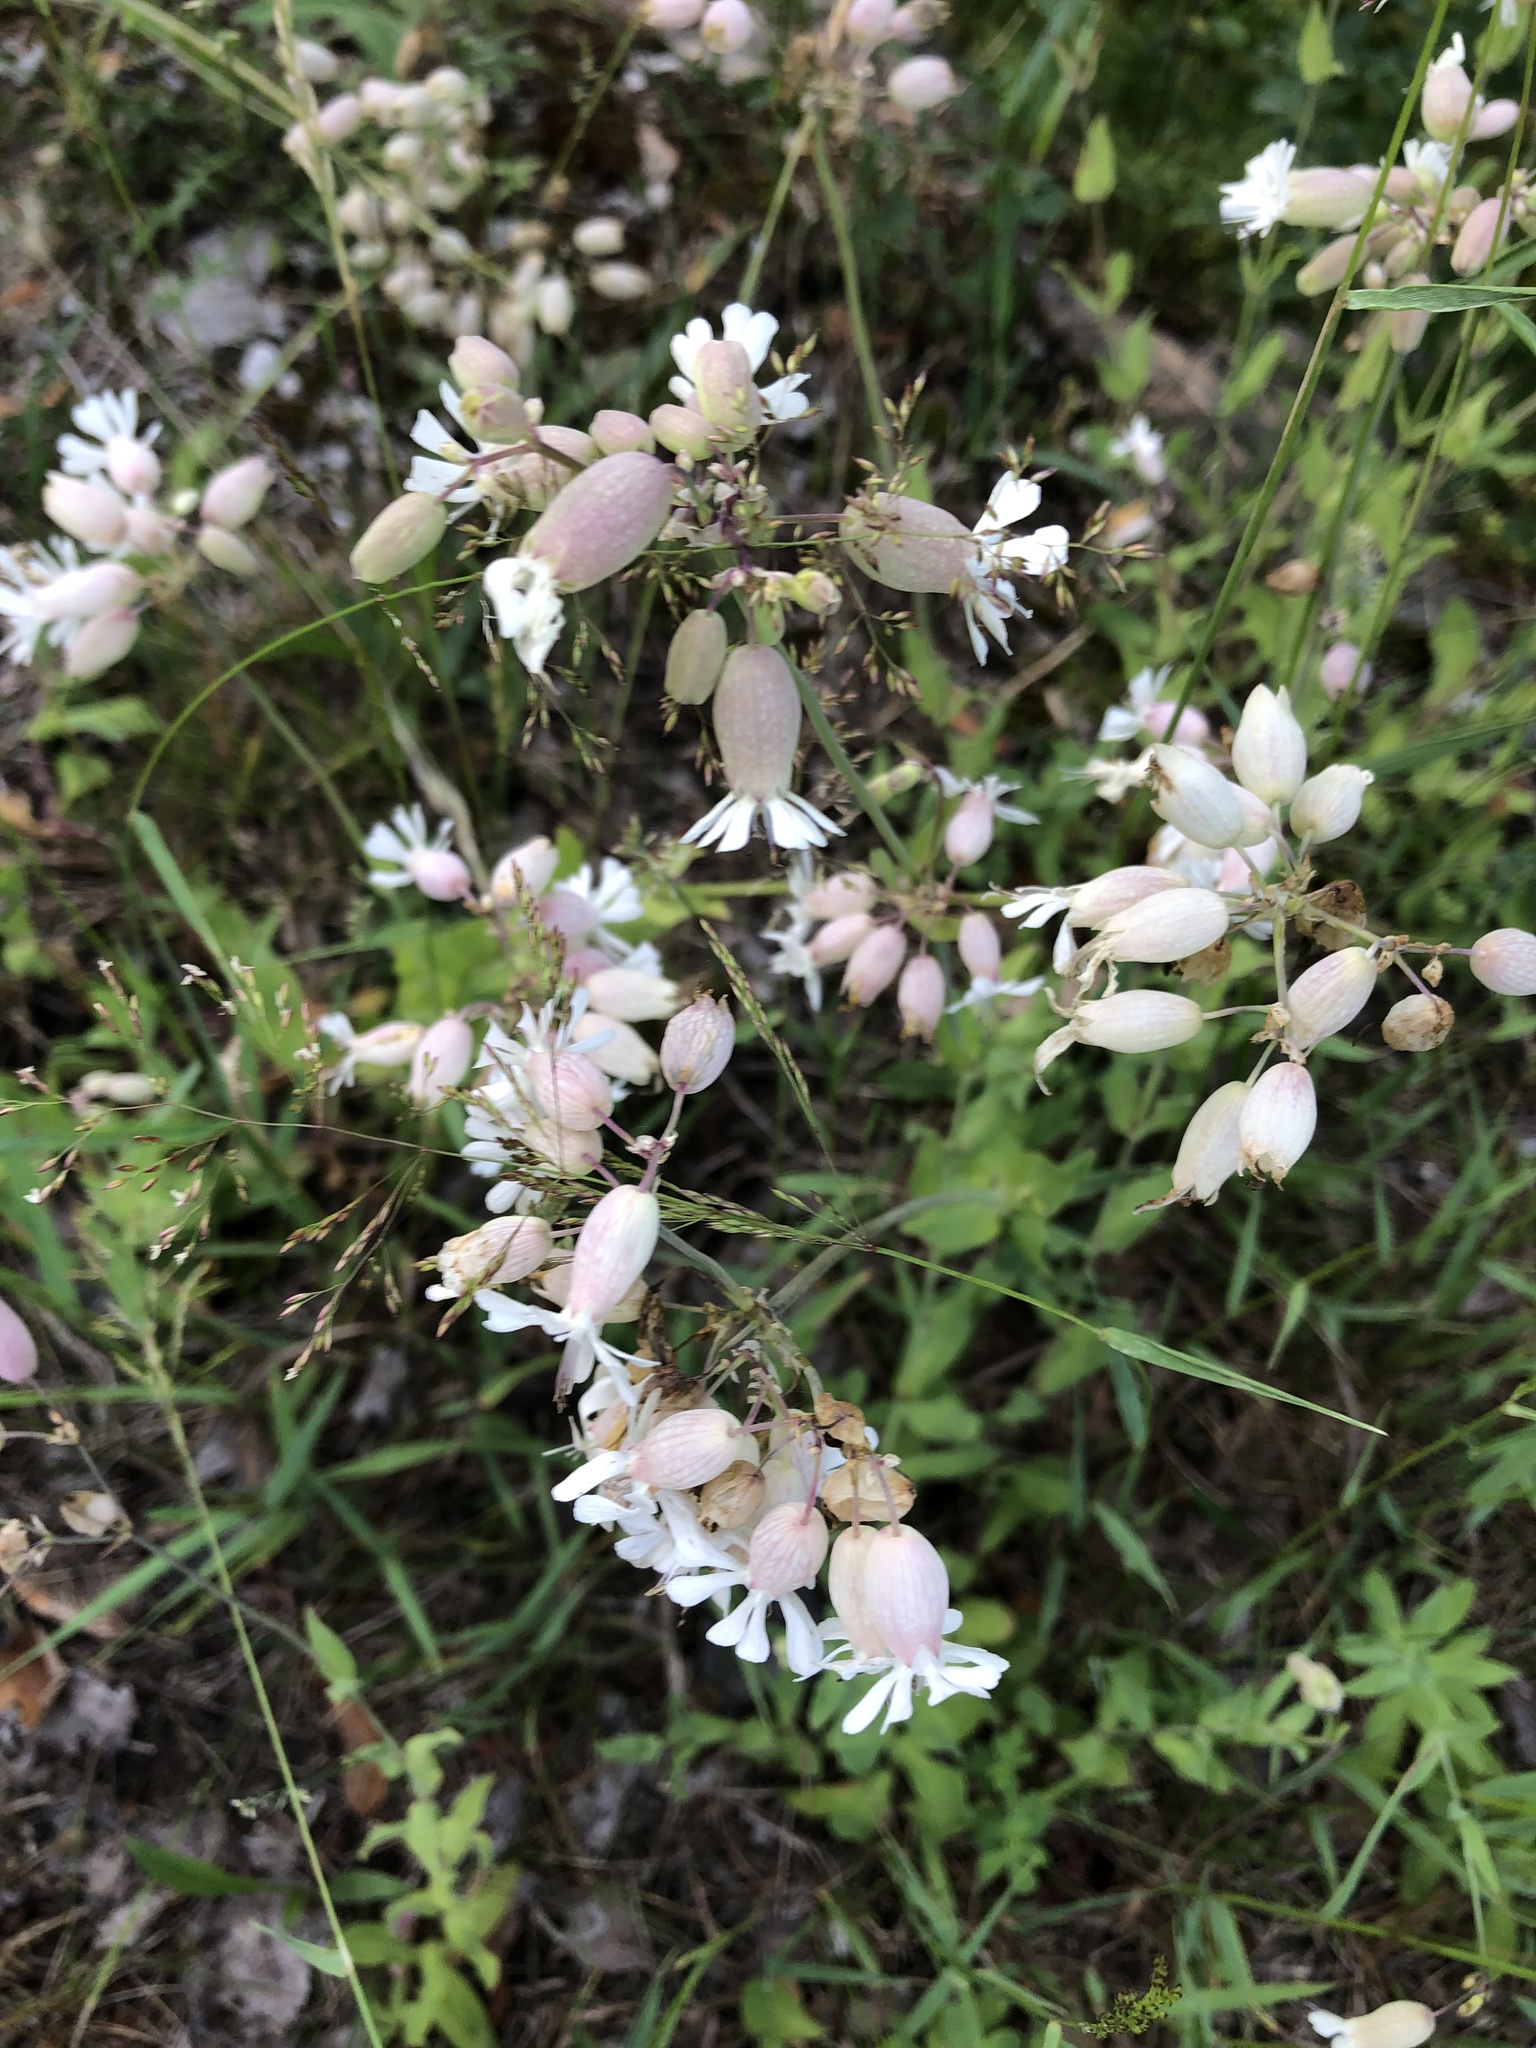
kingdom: Plantae
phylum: Tracheophyta
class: Magnoliopsida
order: Caryophyllales
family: Caryophyllaceae
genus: Silene
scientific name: Silene vulgaris
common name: Bladder campion
